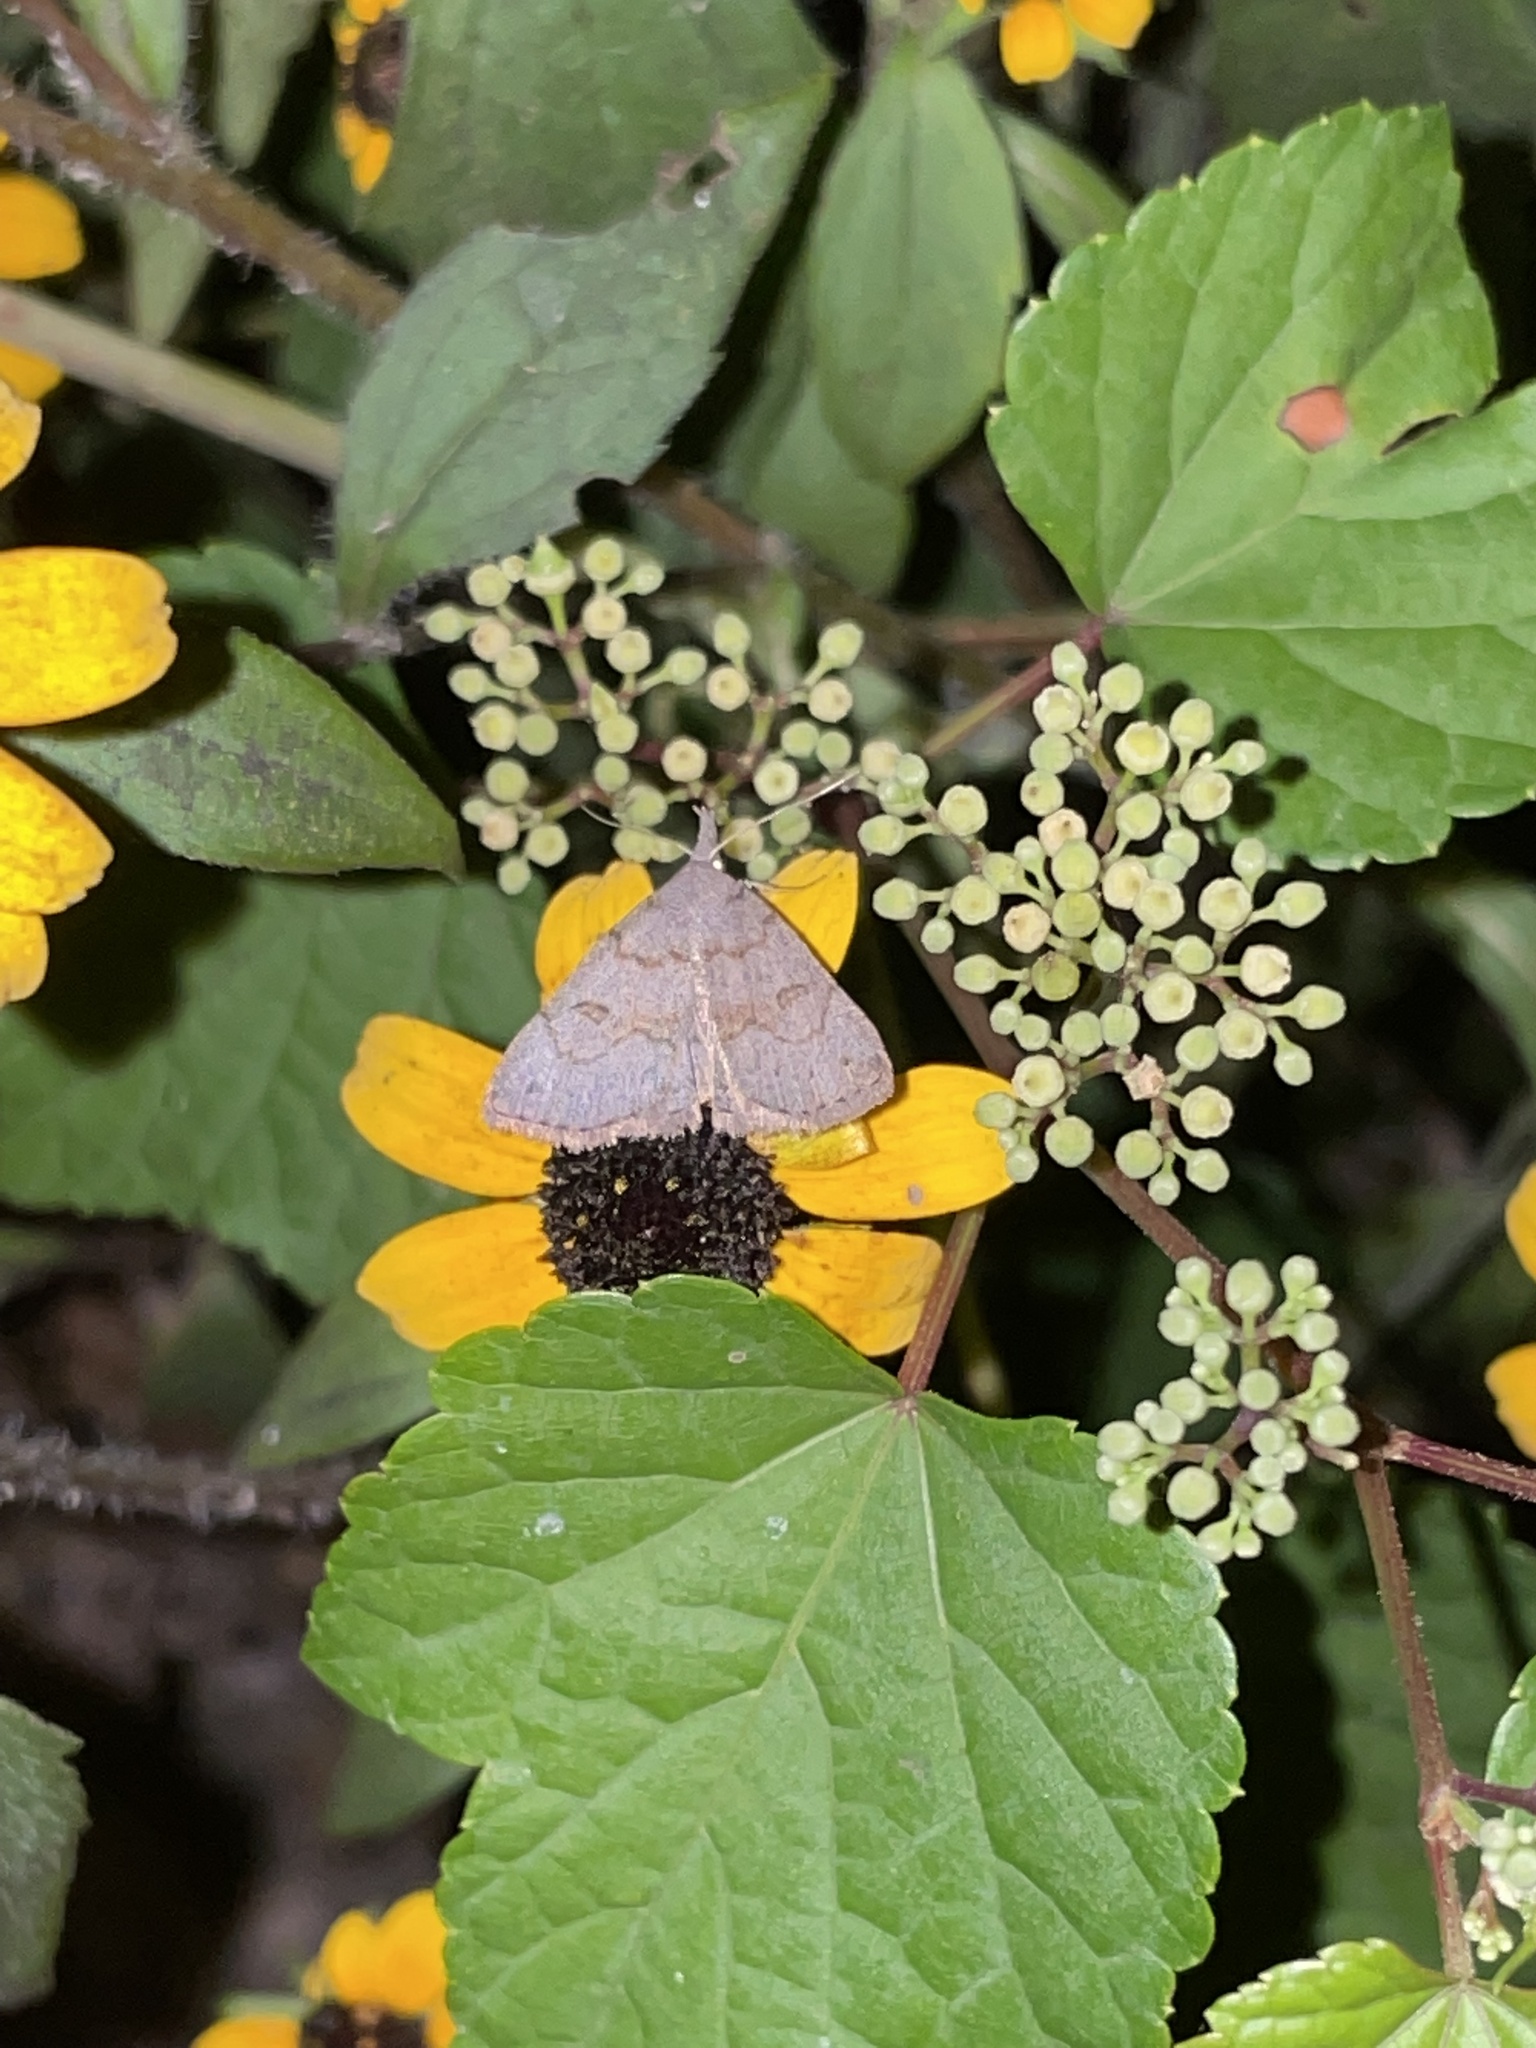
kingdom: Animalia
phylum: Arthropoda
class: Insecta
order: Lepidoptera
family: Erebidae
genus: Macrochilo
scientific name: Macrochilo morbidalis
